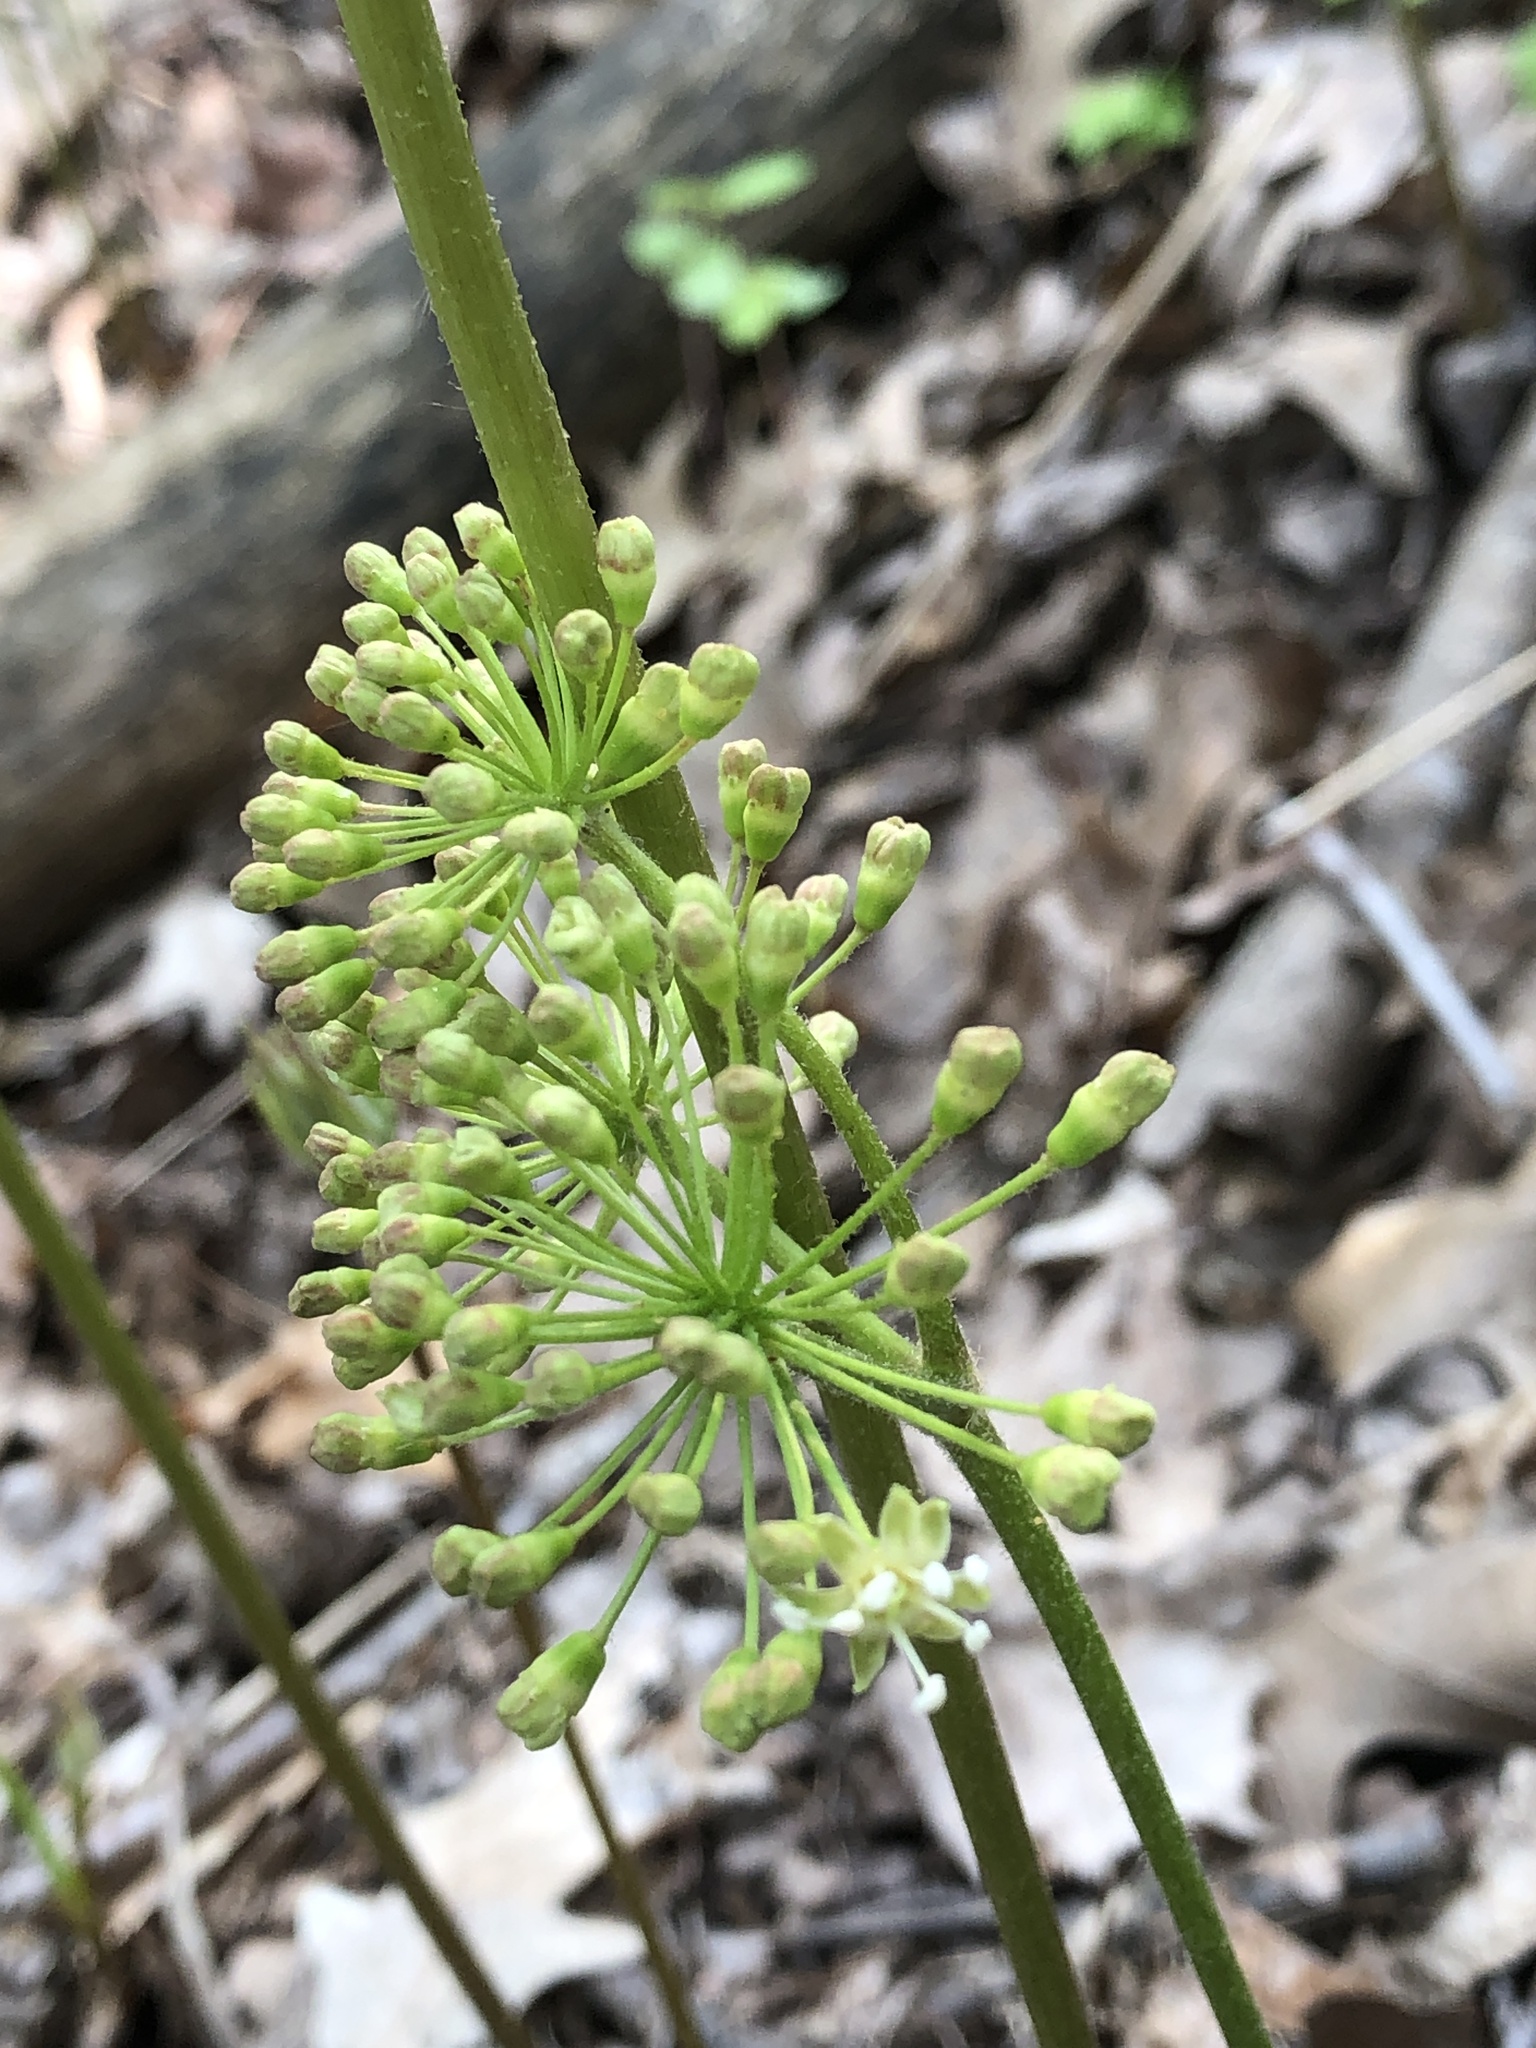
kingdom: Plantae
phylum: Tracheophyta
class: Magnoliopsida
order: Apiales
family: Araliaceae
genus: Aralia
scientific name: Aralia nudicaulis
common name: Wild sarsaparilla
